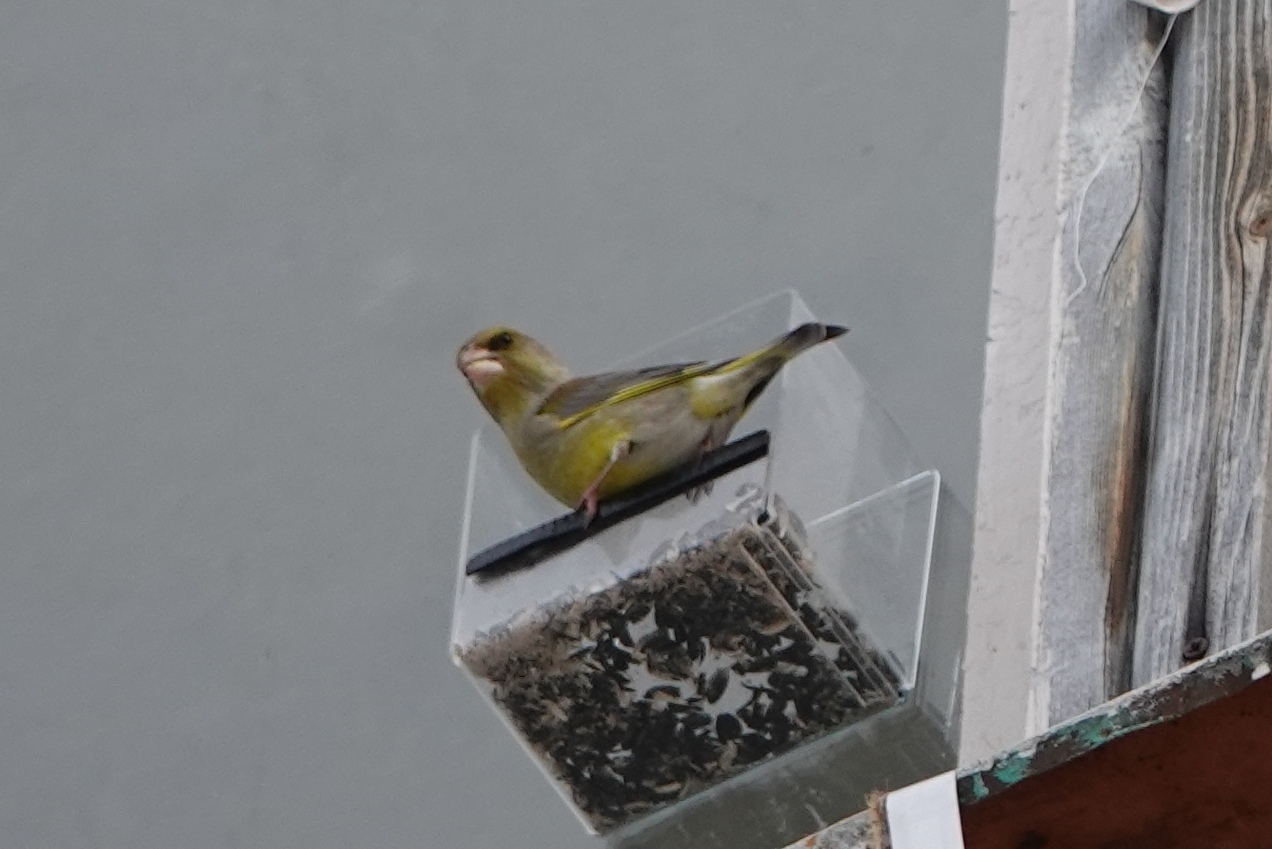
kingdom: Plantae
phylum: Tracheophyta
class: Liliopsida
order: Poales
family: Poaceae
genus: Chloris
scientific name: Chloris chloris
